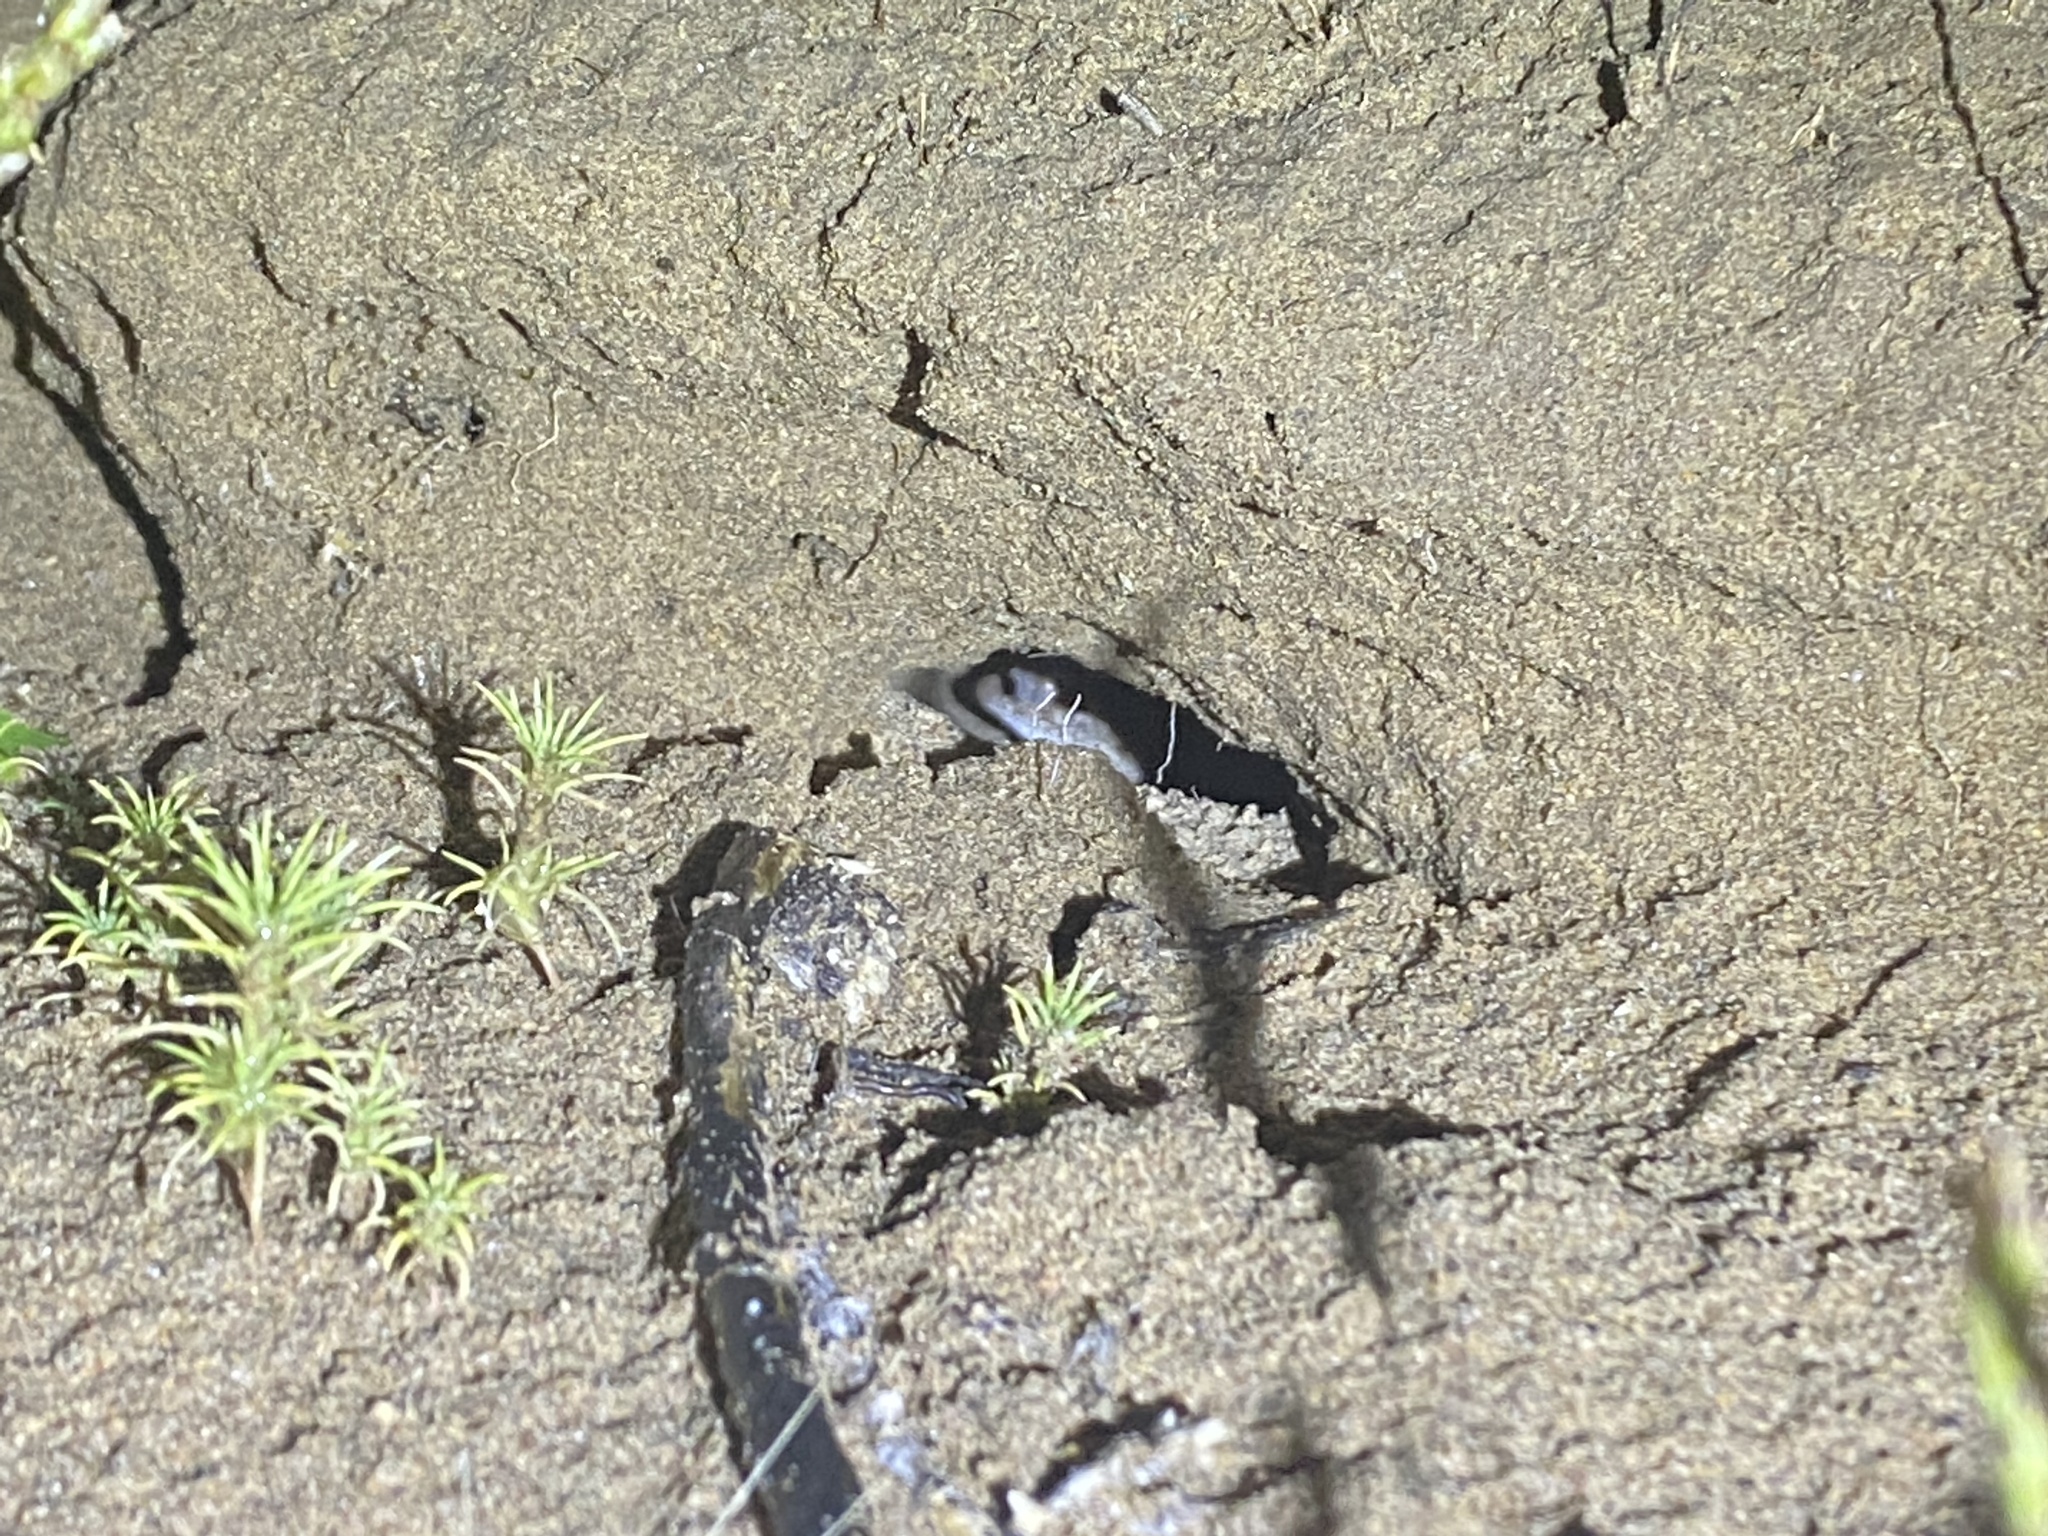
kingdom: Animalia
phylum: Chordata
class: Squamata
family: Gekkonidae
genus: Stenodactylus
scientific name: Stenodactylus doriae
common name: Dune sand gecko
